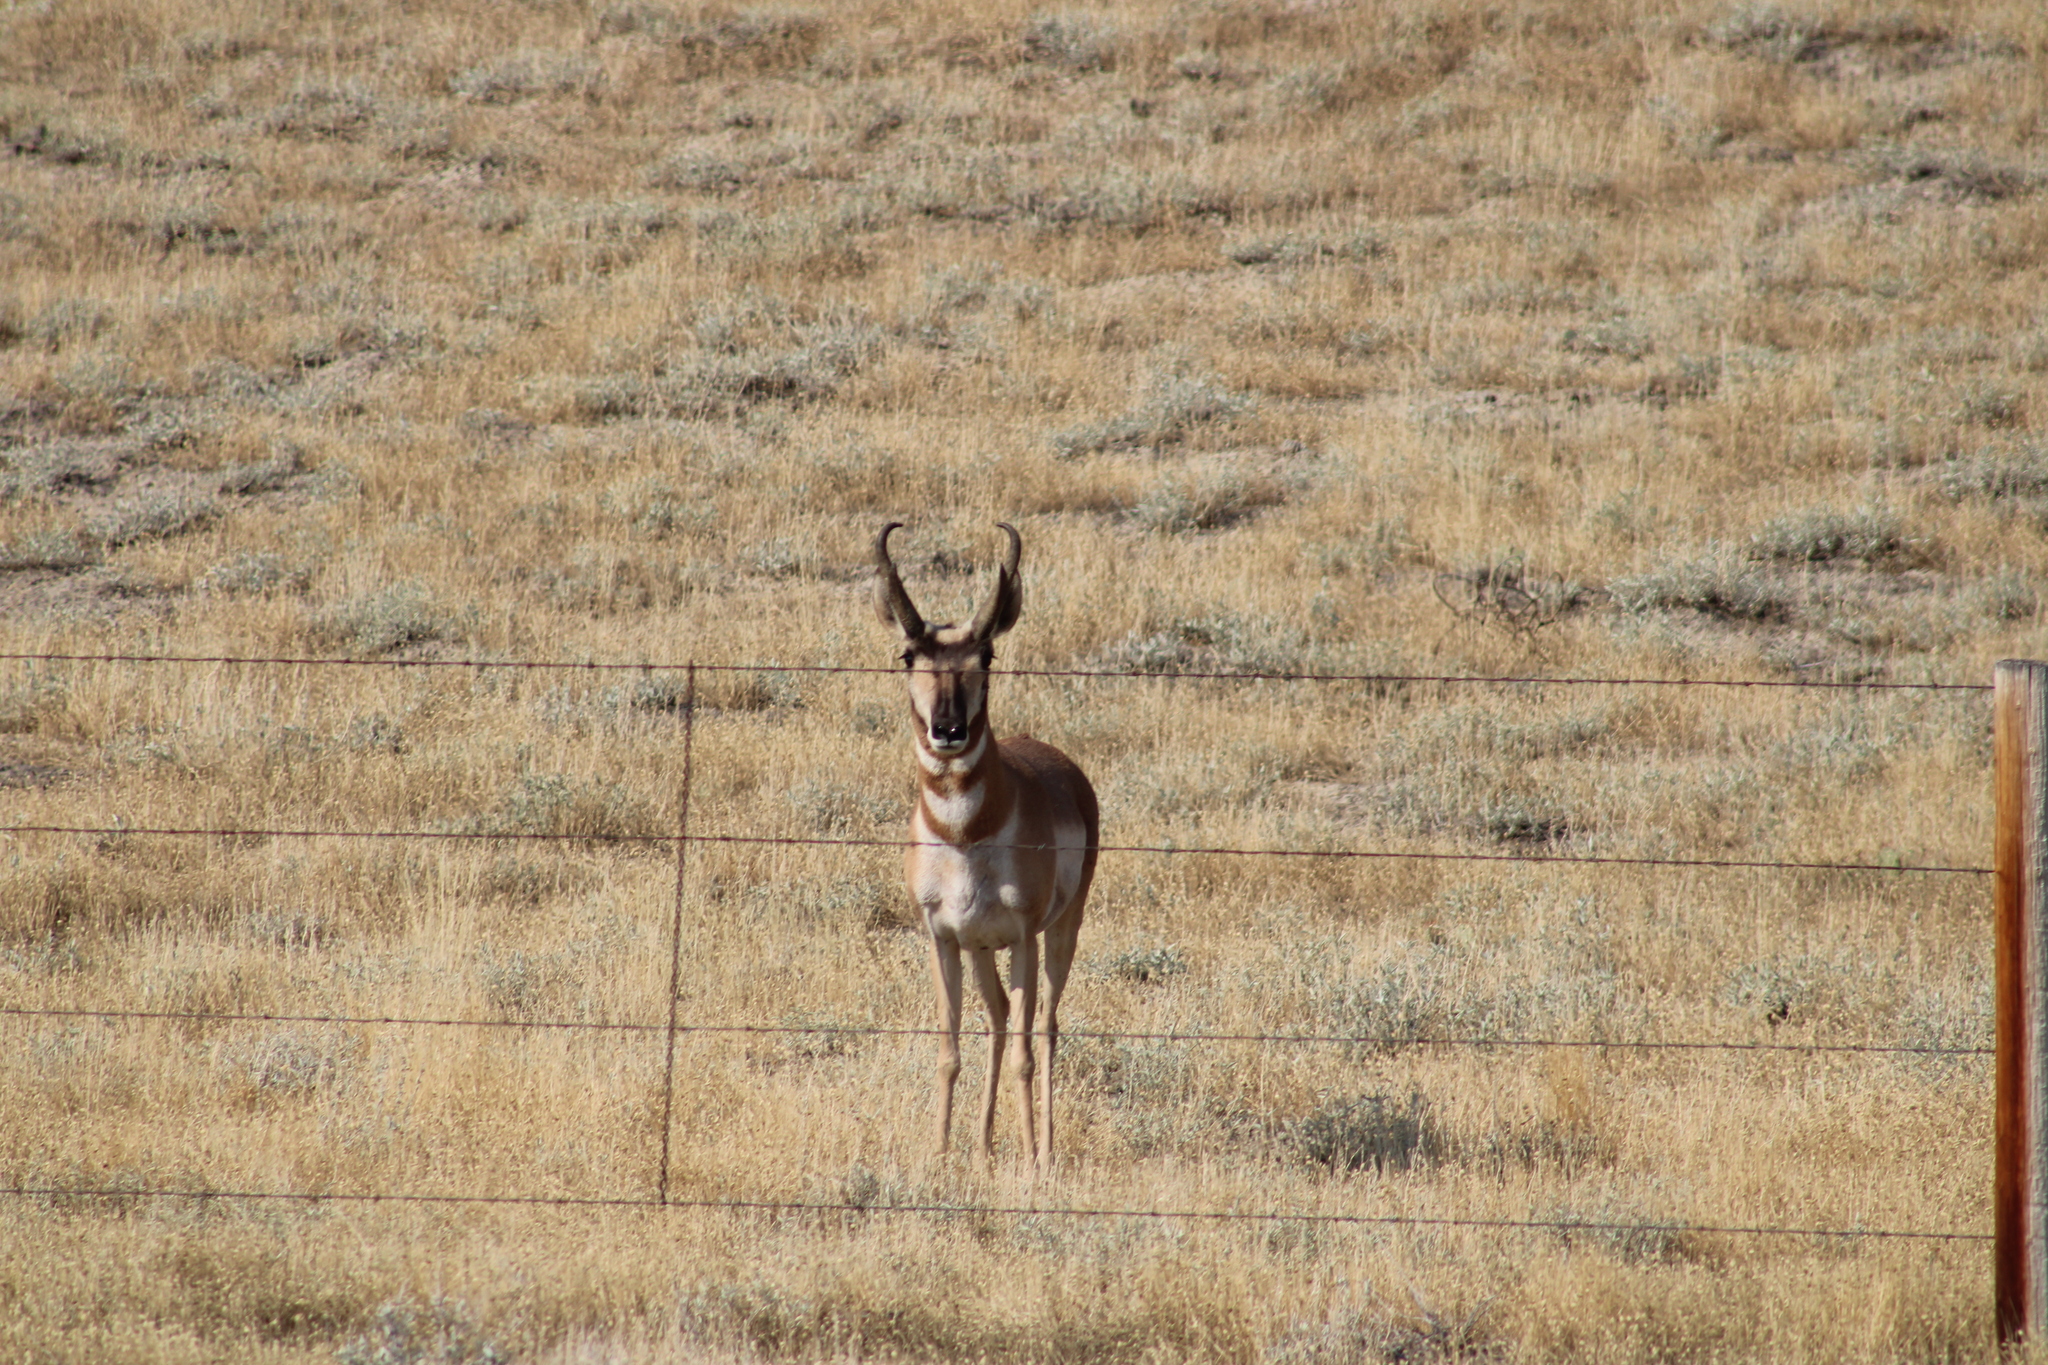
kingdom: Animalia
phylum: Chordata
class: Mammalia
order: Artiodactyla
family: Antilocapridae
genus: Antilocapra
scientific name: Antilocapra americana
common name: Pronghorn
